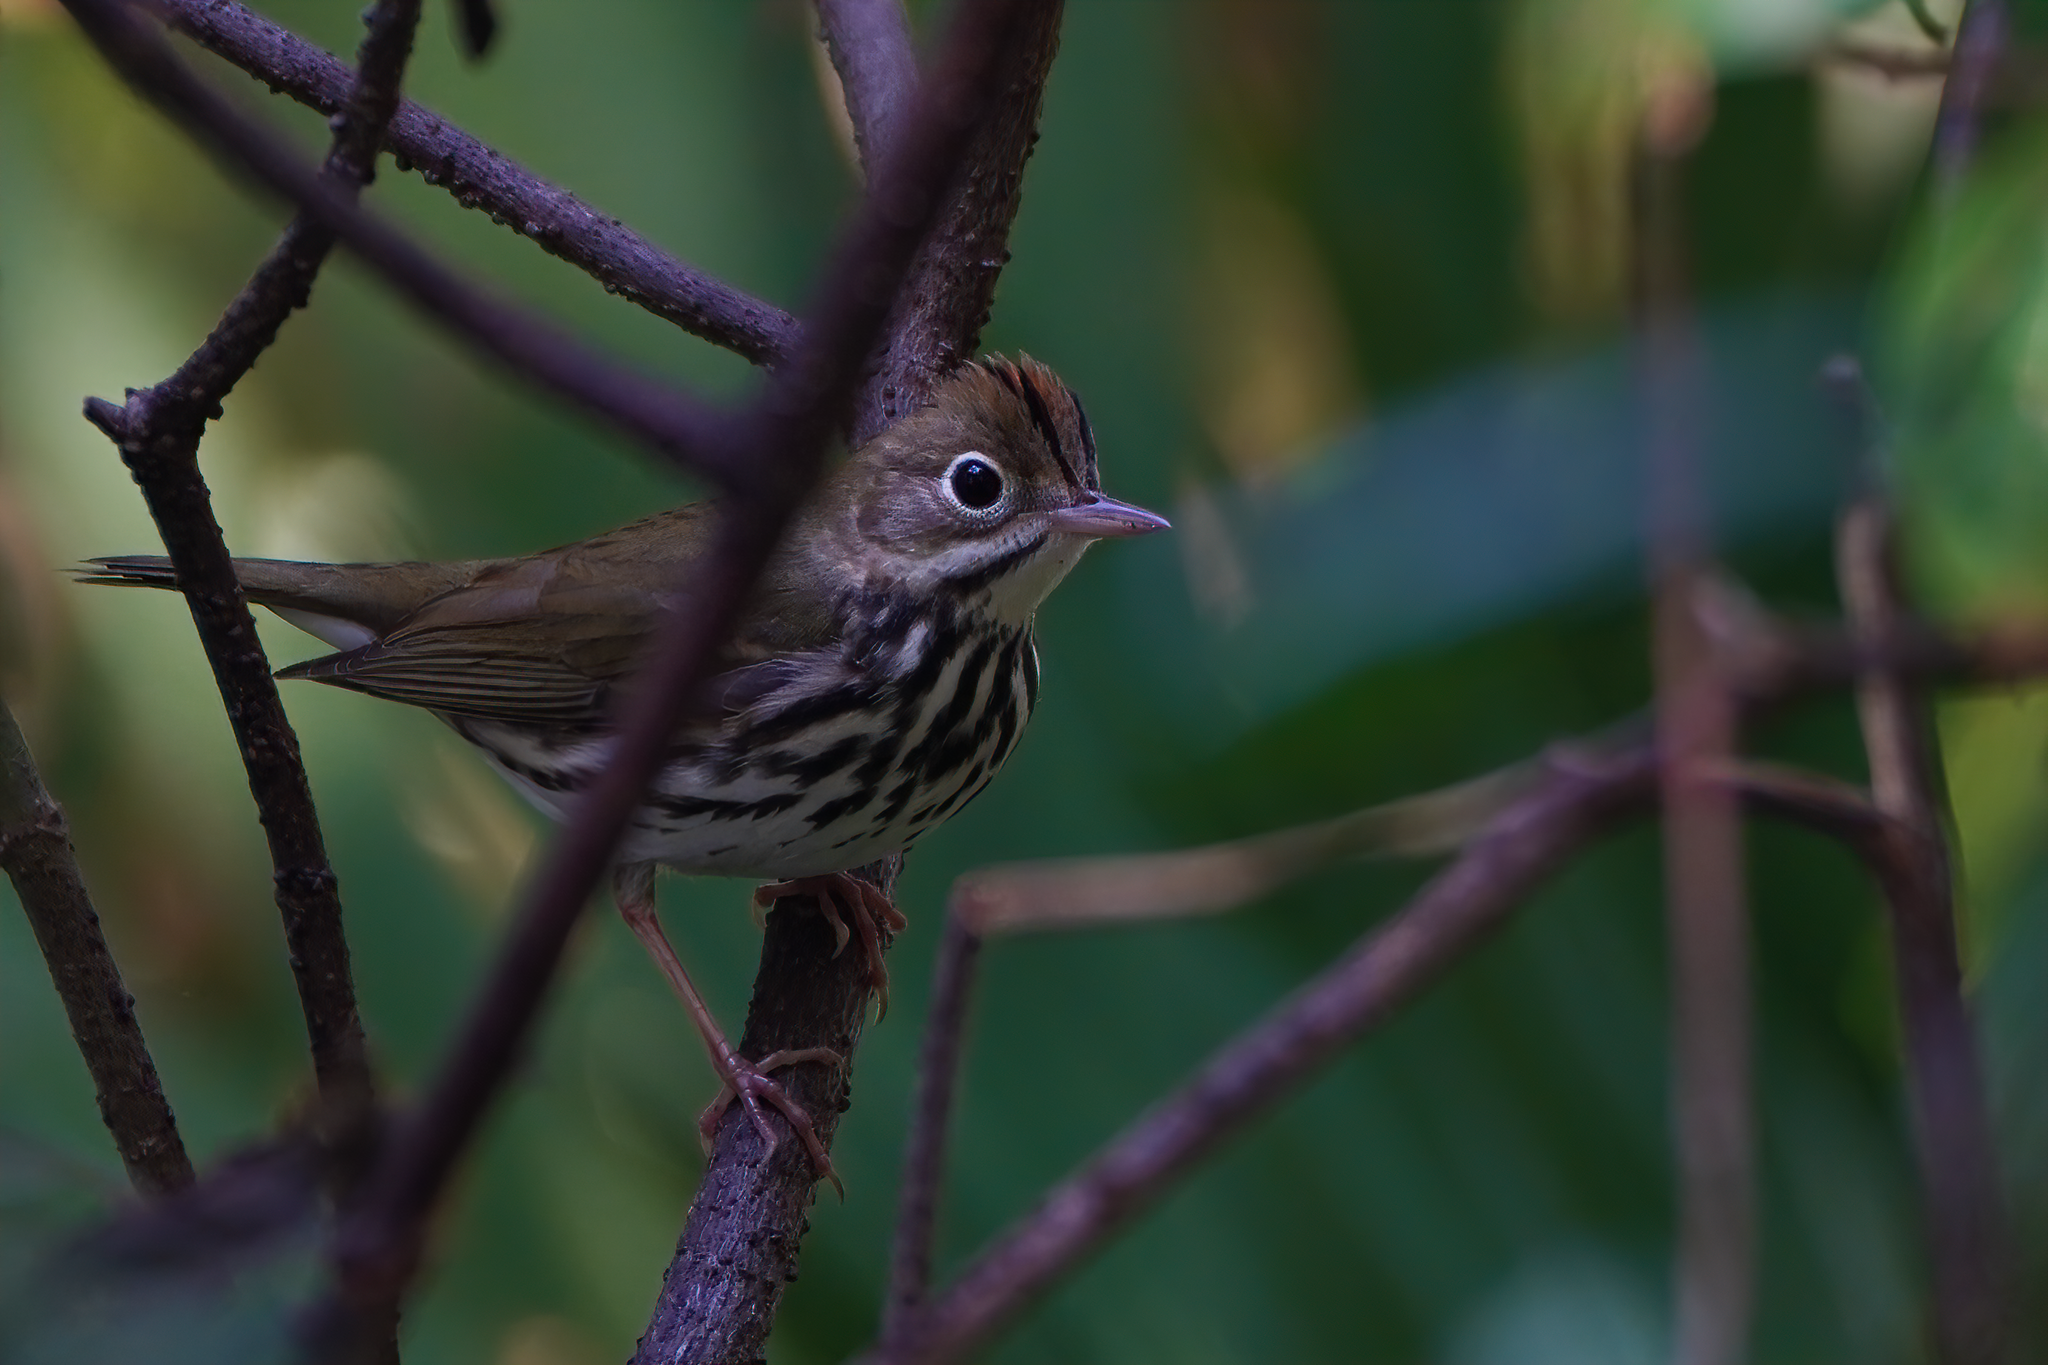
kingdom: Animalia
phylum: Chordata
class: Aves
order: Passeriformes
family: Parulidae
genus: Seiurus
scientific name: Seiurus aurocapilla
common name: Ovenbird
